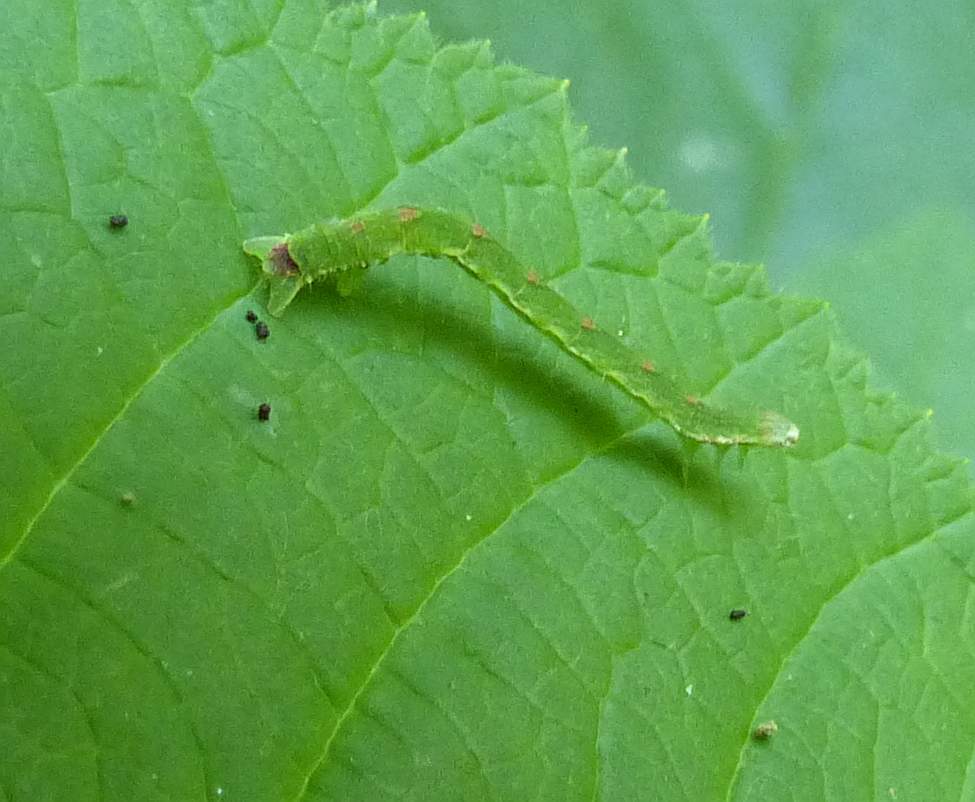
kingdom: Animalia
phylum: Arthropoda
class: Insecta
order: Lepidoptera
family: Geometridae
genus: Mesoleuca
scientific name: Mesoleuca ruficillata
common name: White-ribboned carpet moth
